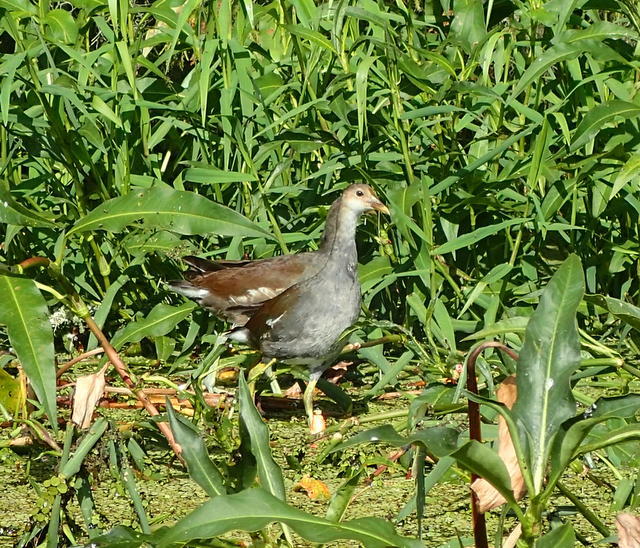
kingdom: Animalia
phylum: Chordata
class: Aves
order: Gruiformes
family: Rallidae
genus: Gallinula
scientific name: Gallinula chloropus
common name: Common moorhen
